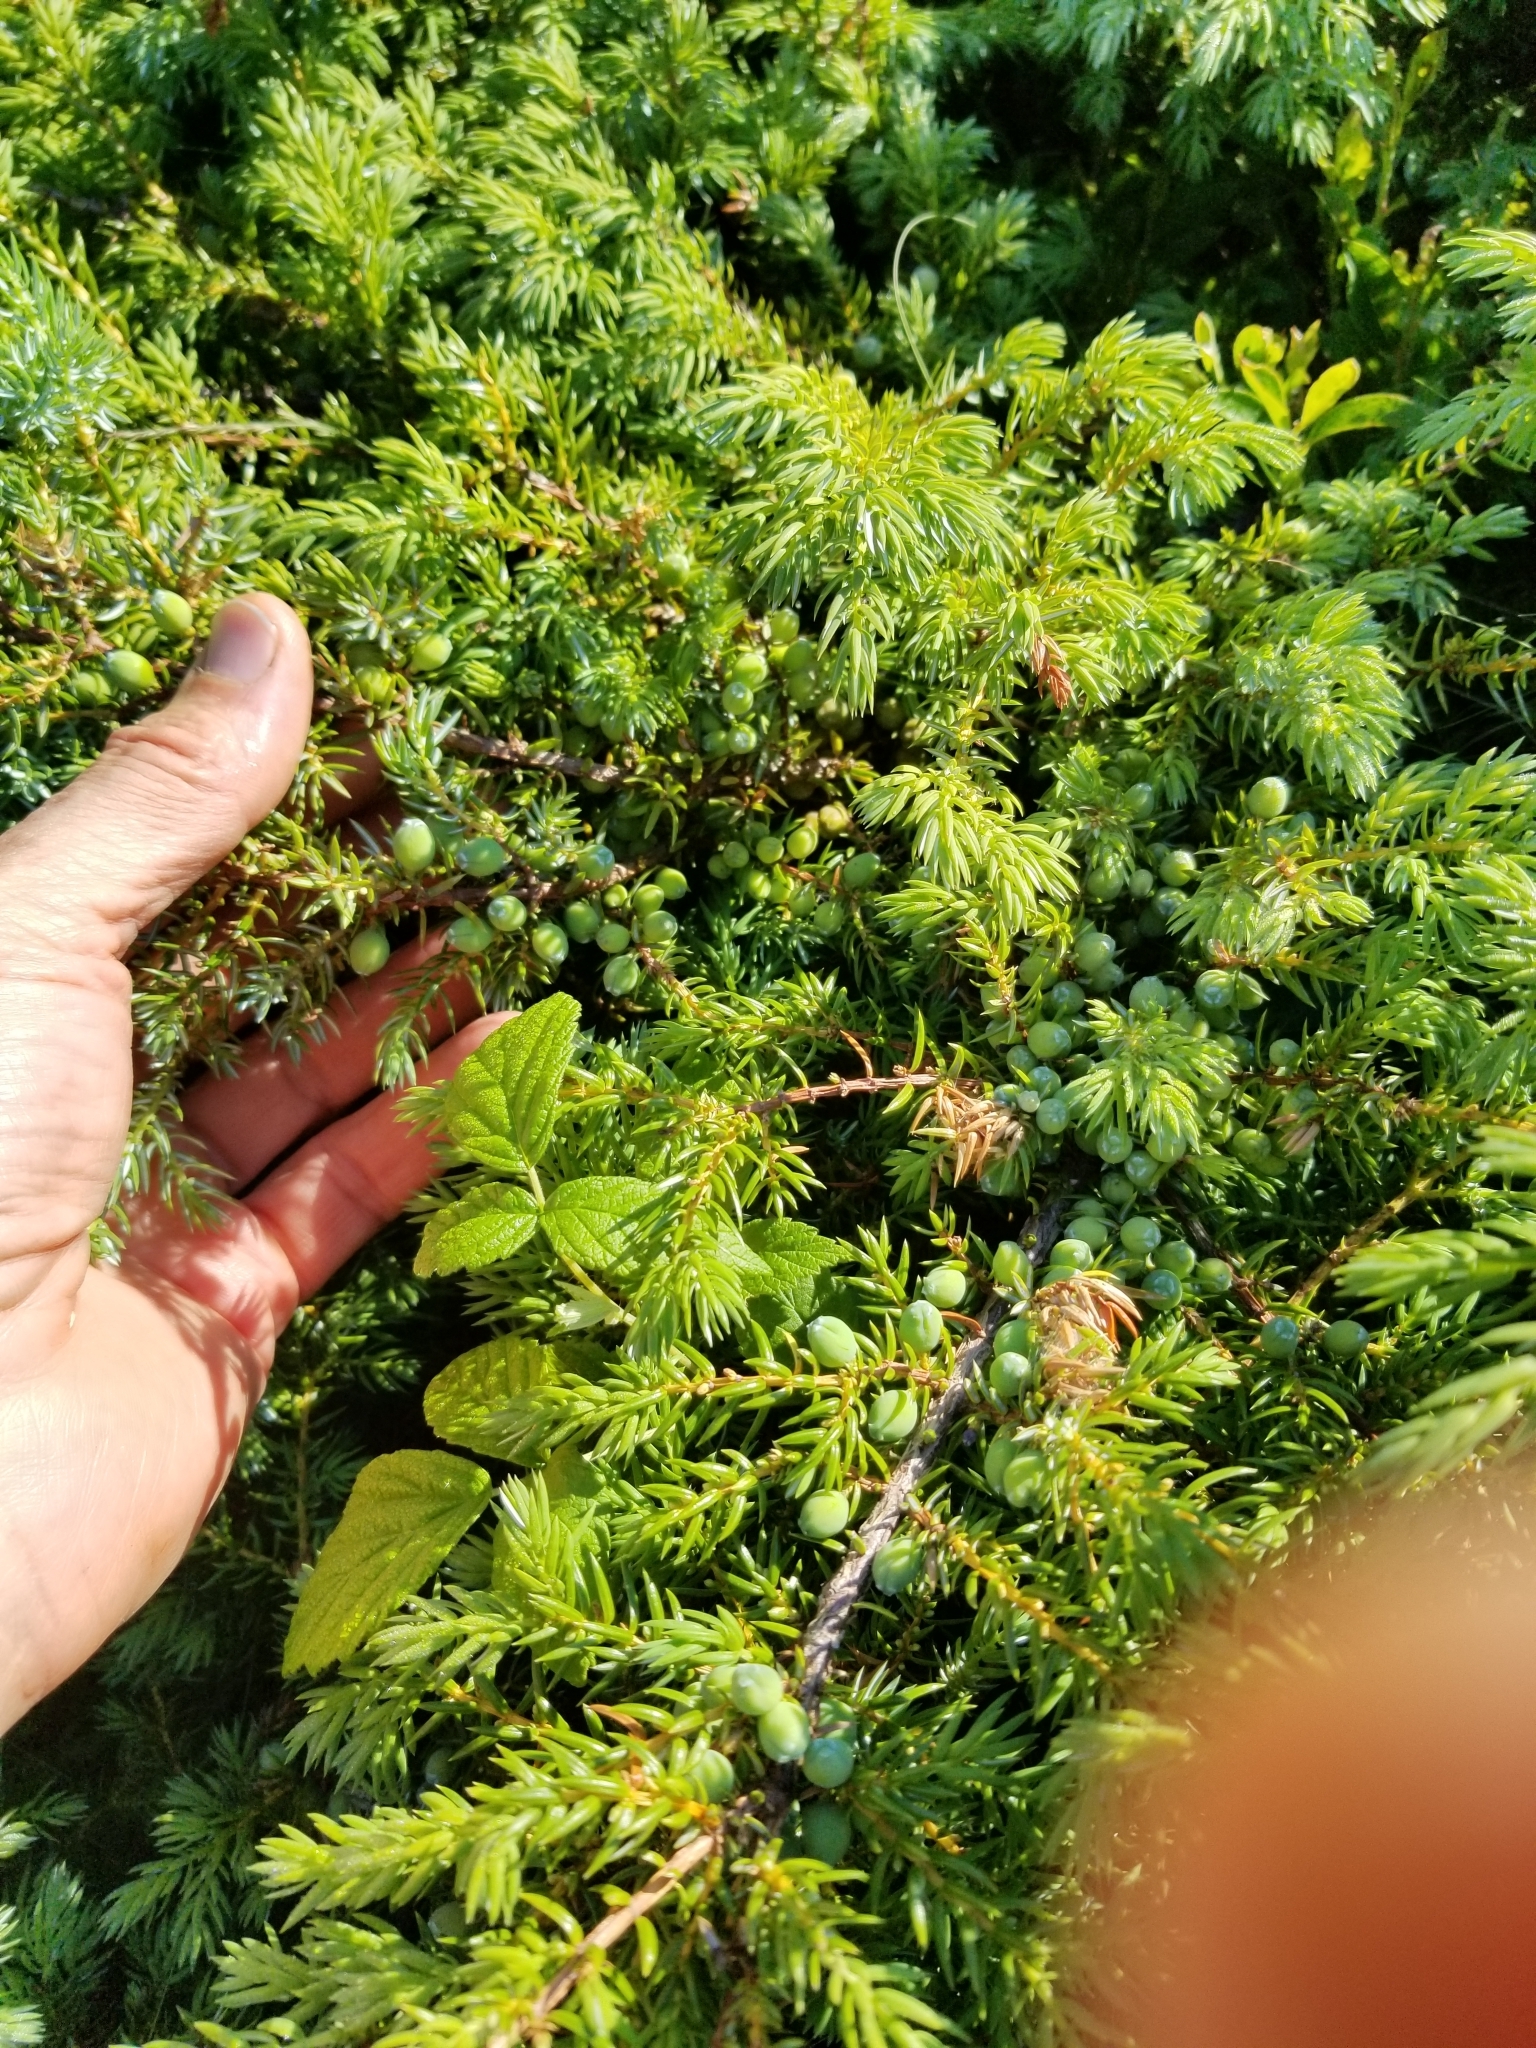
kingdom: Plantae
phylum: Tracheophyta
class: Pinopsida
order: Pinales
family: Cupressaceae
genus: Juniperus
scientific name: Juniperus communis
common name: Common juniper
